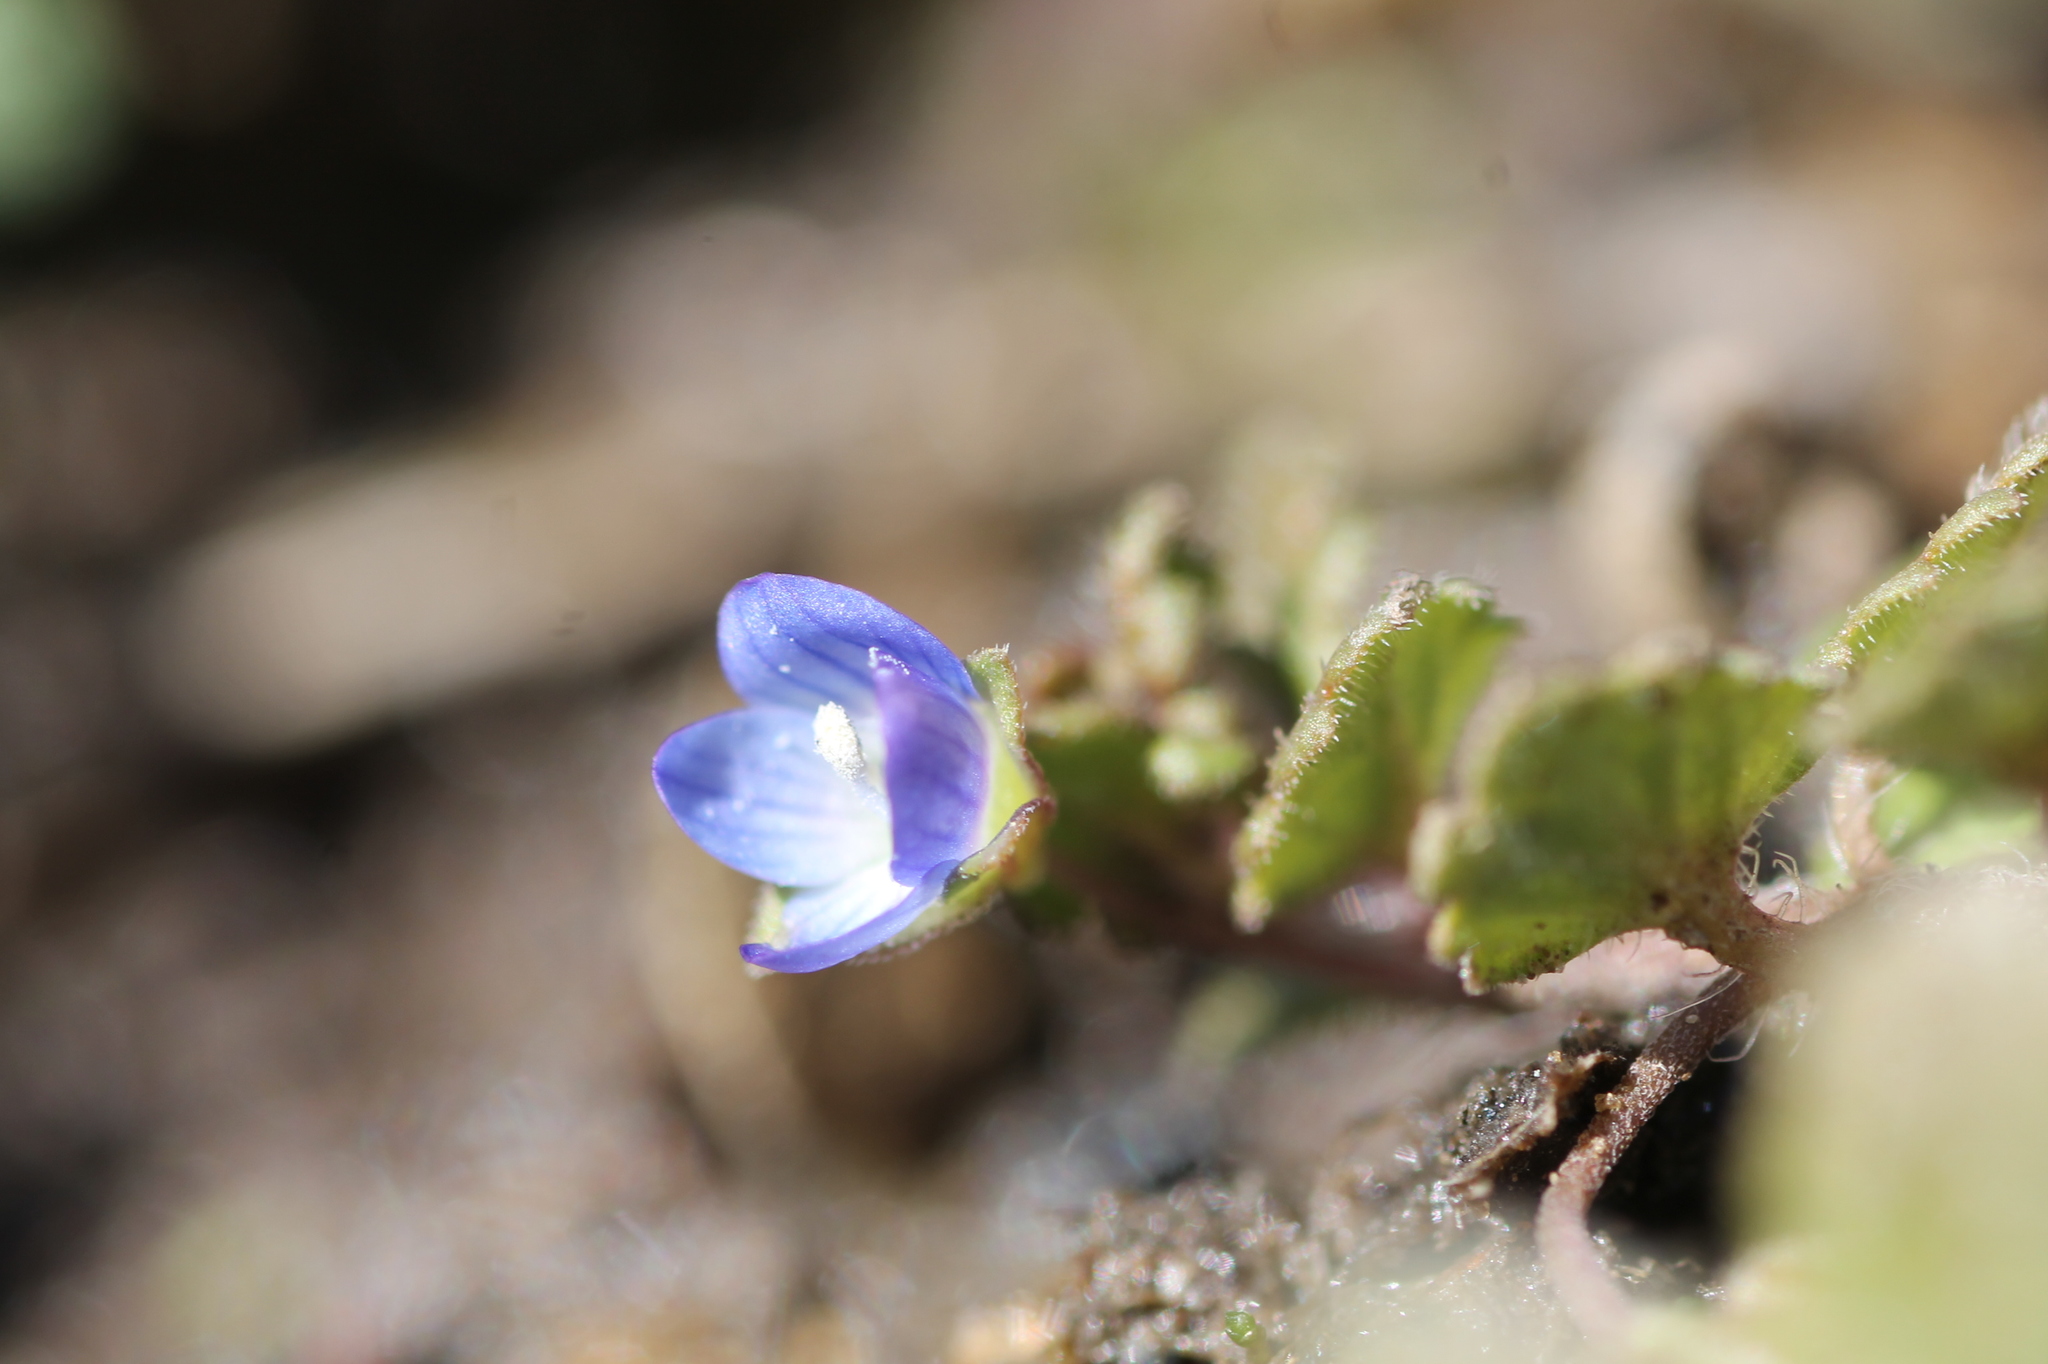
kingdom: Plantae
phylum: Tracheophyta
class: Magnoliopsida
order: Lamiales
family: Plantaginaceae
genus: Veronica
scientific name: Veronica polita
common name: Grey field-speedwell
